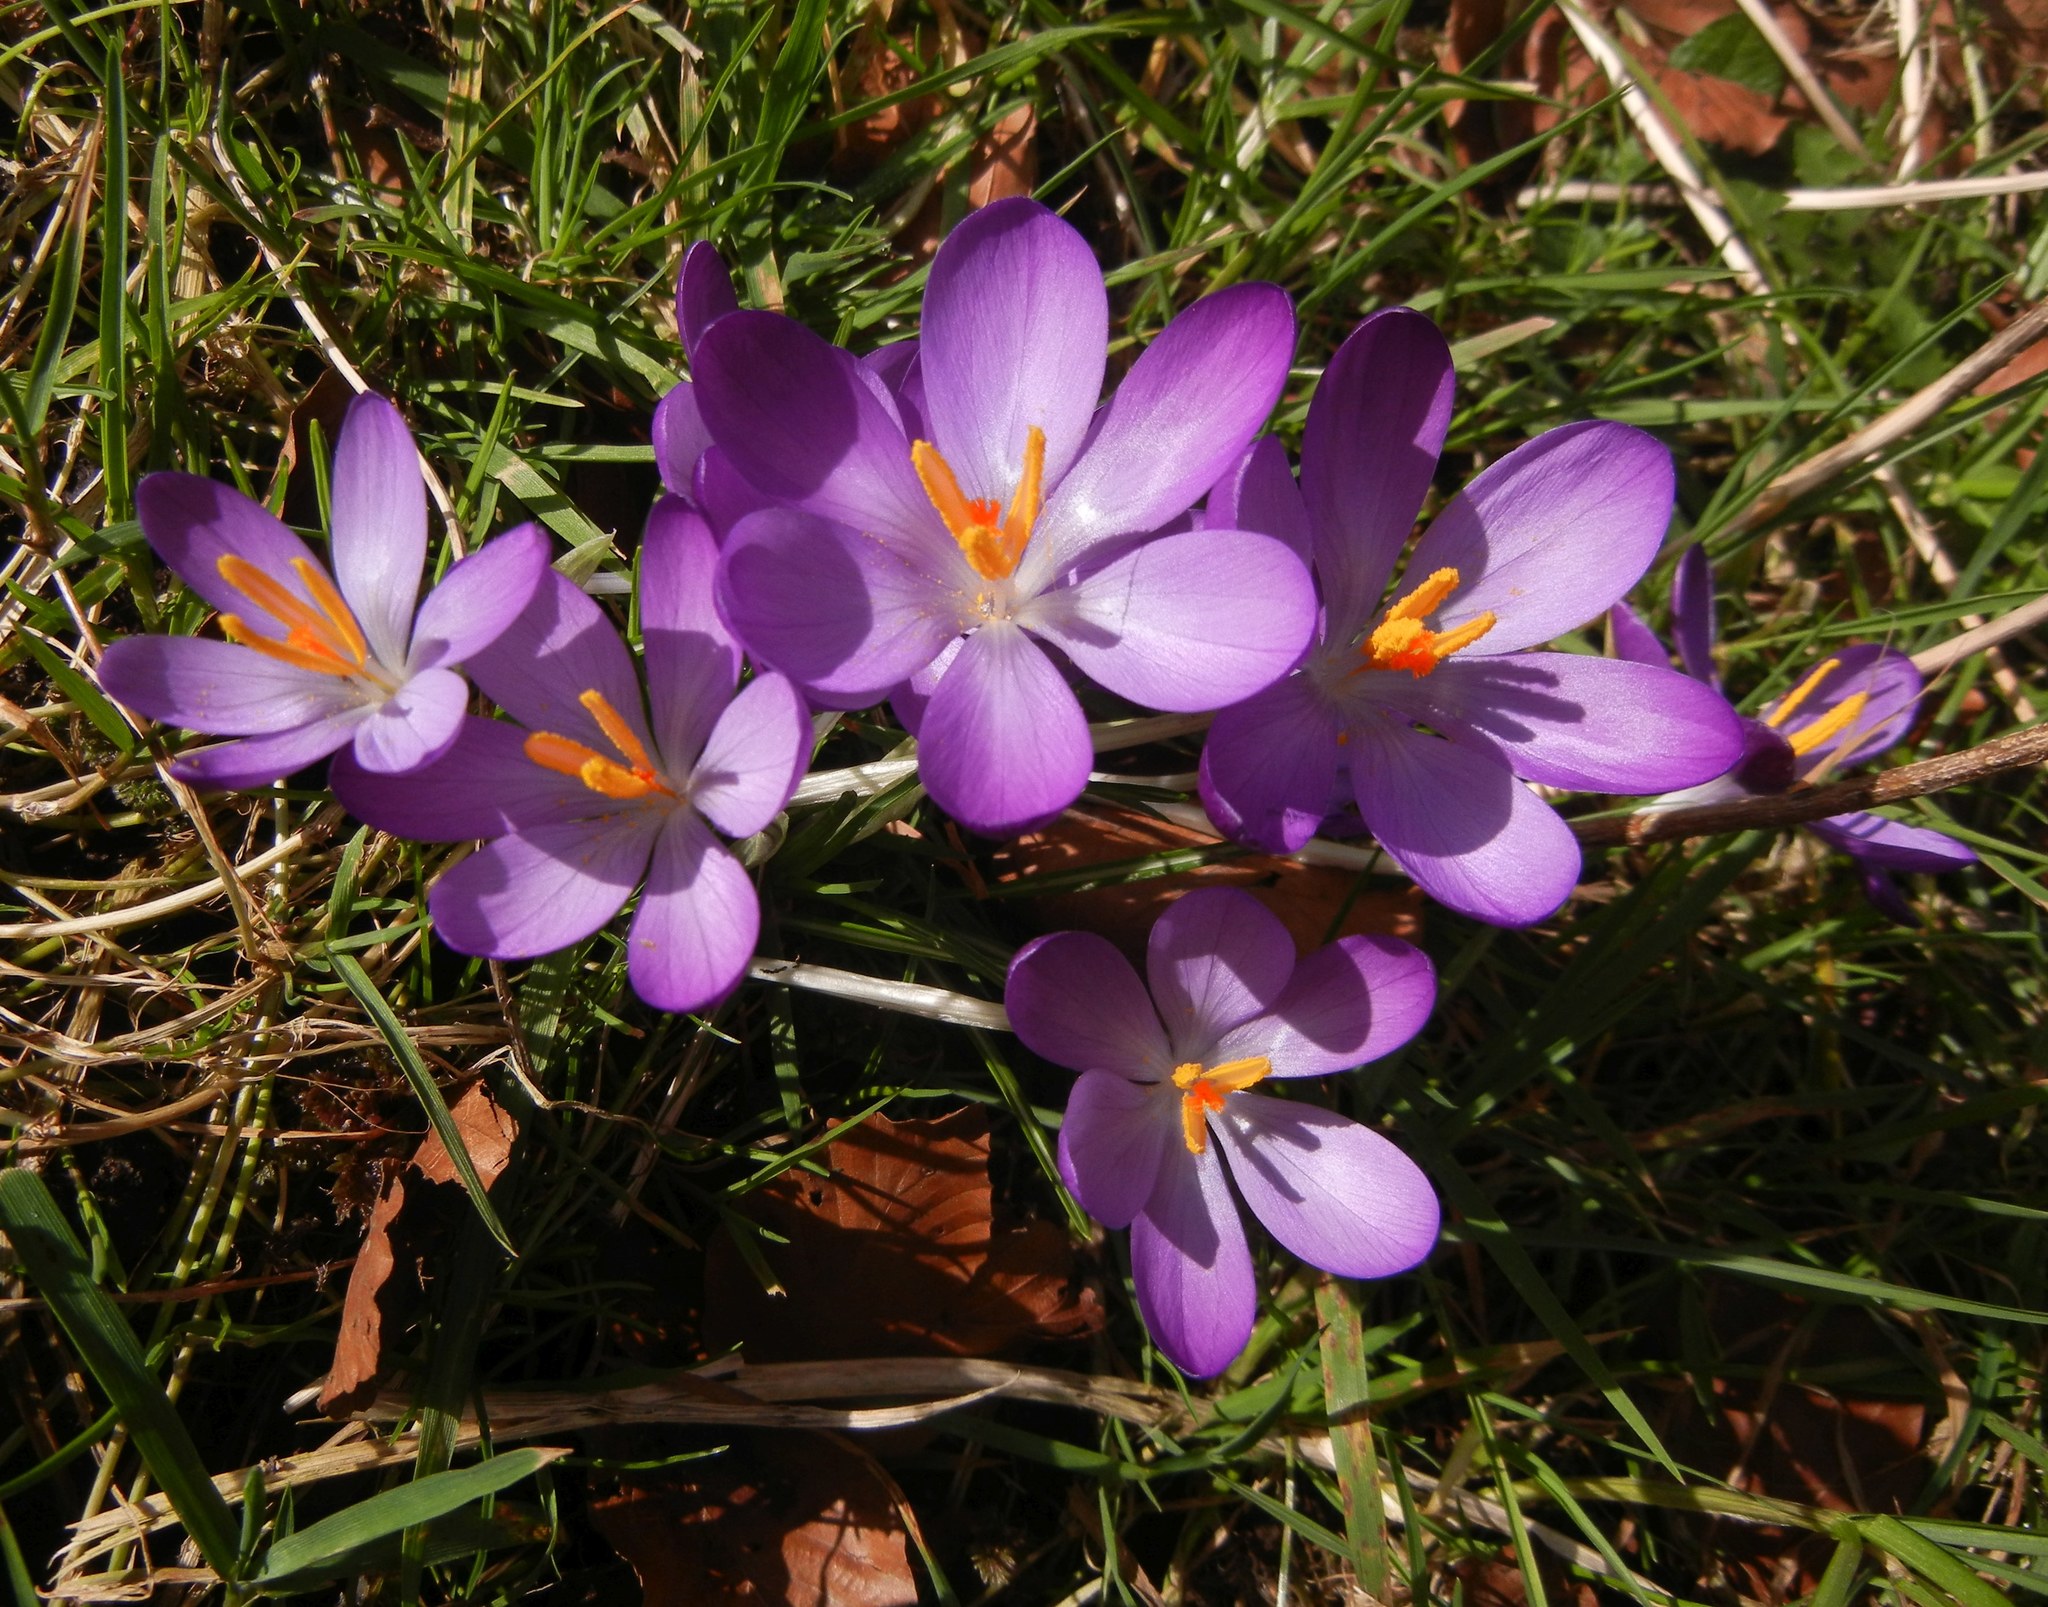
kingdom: Plantae
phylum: Tracheophyta
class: Liliopsida
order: Asparagales
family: Iridaceae
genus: Crocus
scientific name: Crocus tommasinianus
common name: Early crocus
